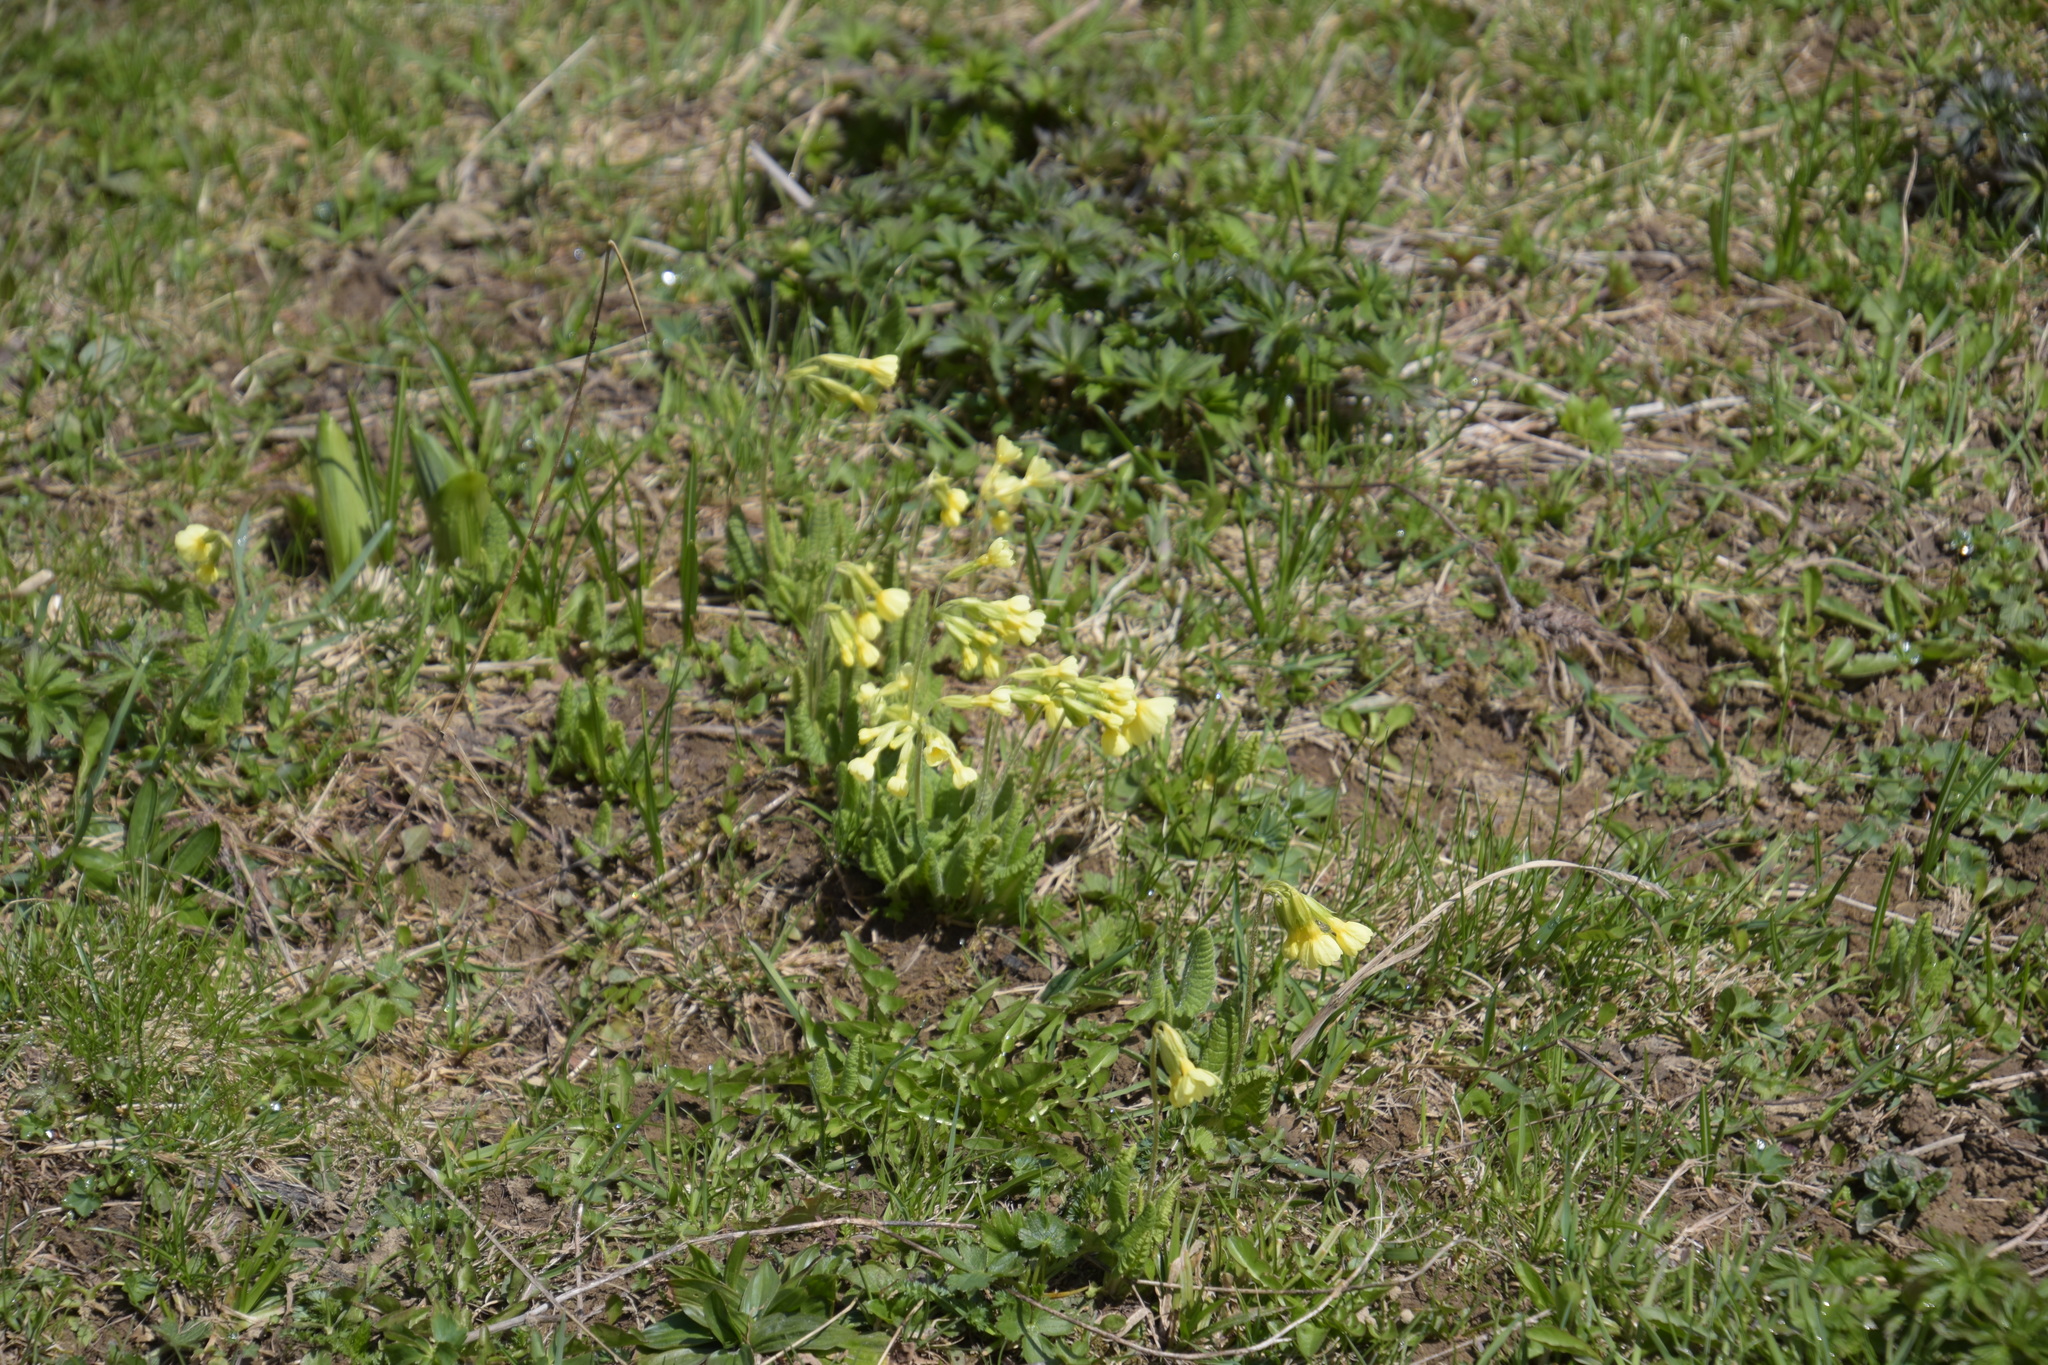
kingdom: Plantae
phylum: Tracheophyta
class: Magnoliopsida
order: Ericales
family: Primulaceae
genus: Primula
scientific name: Primula elatior
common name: Oxlip
